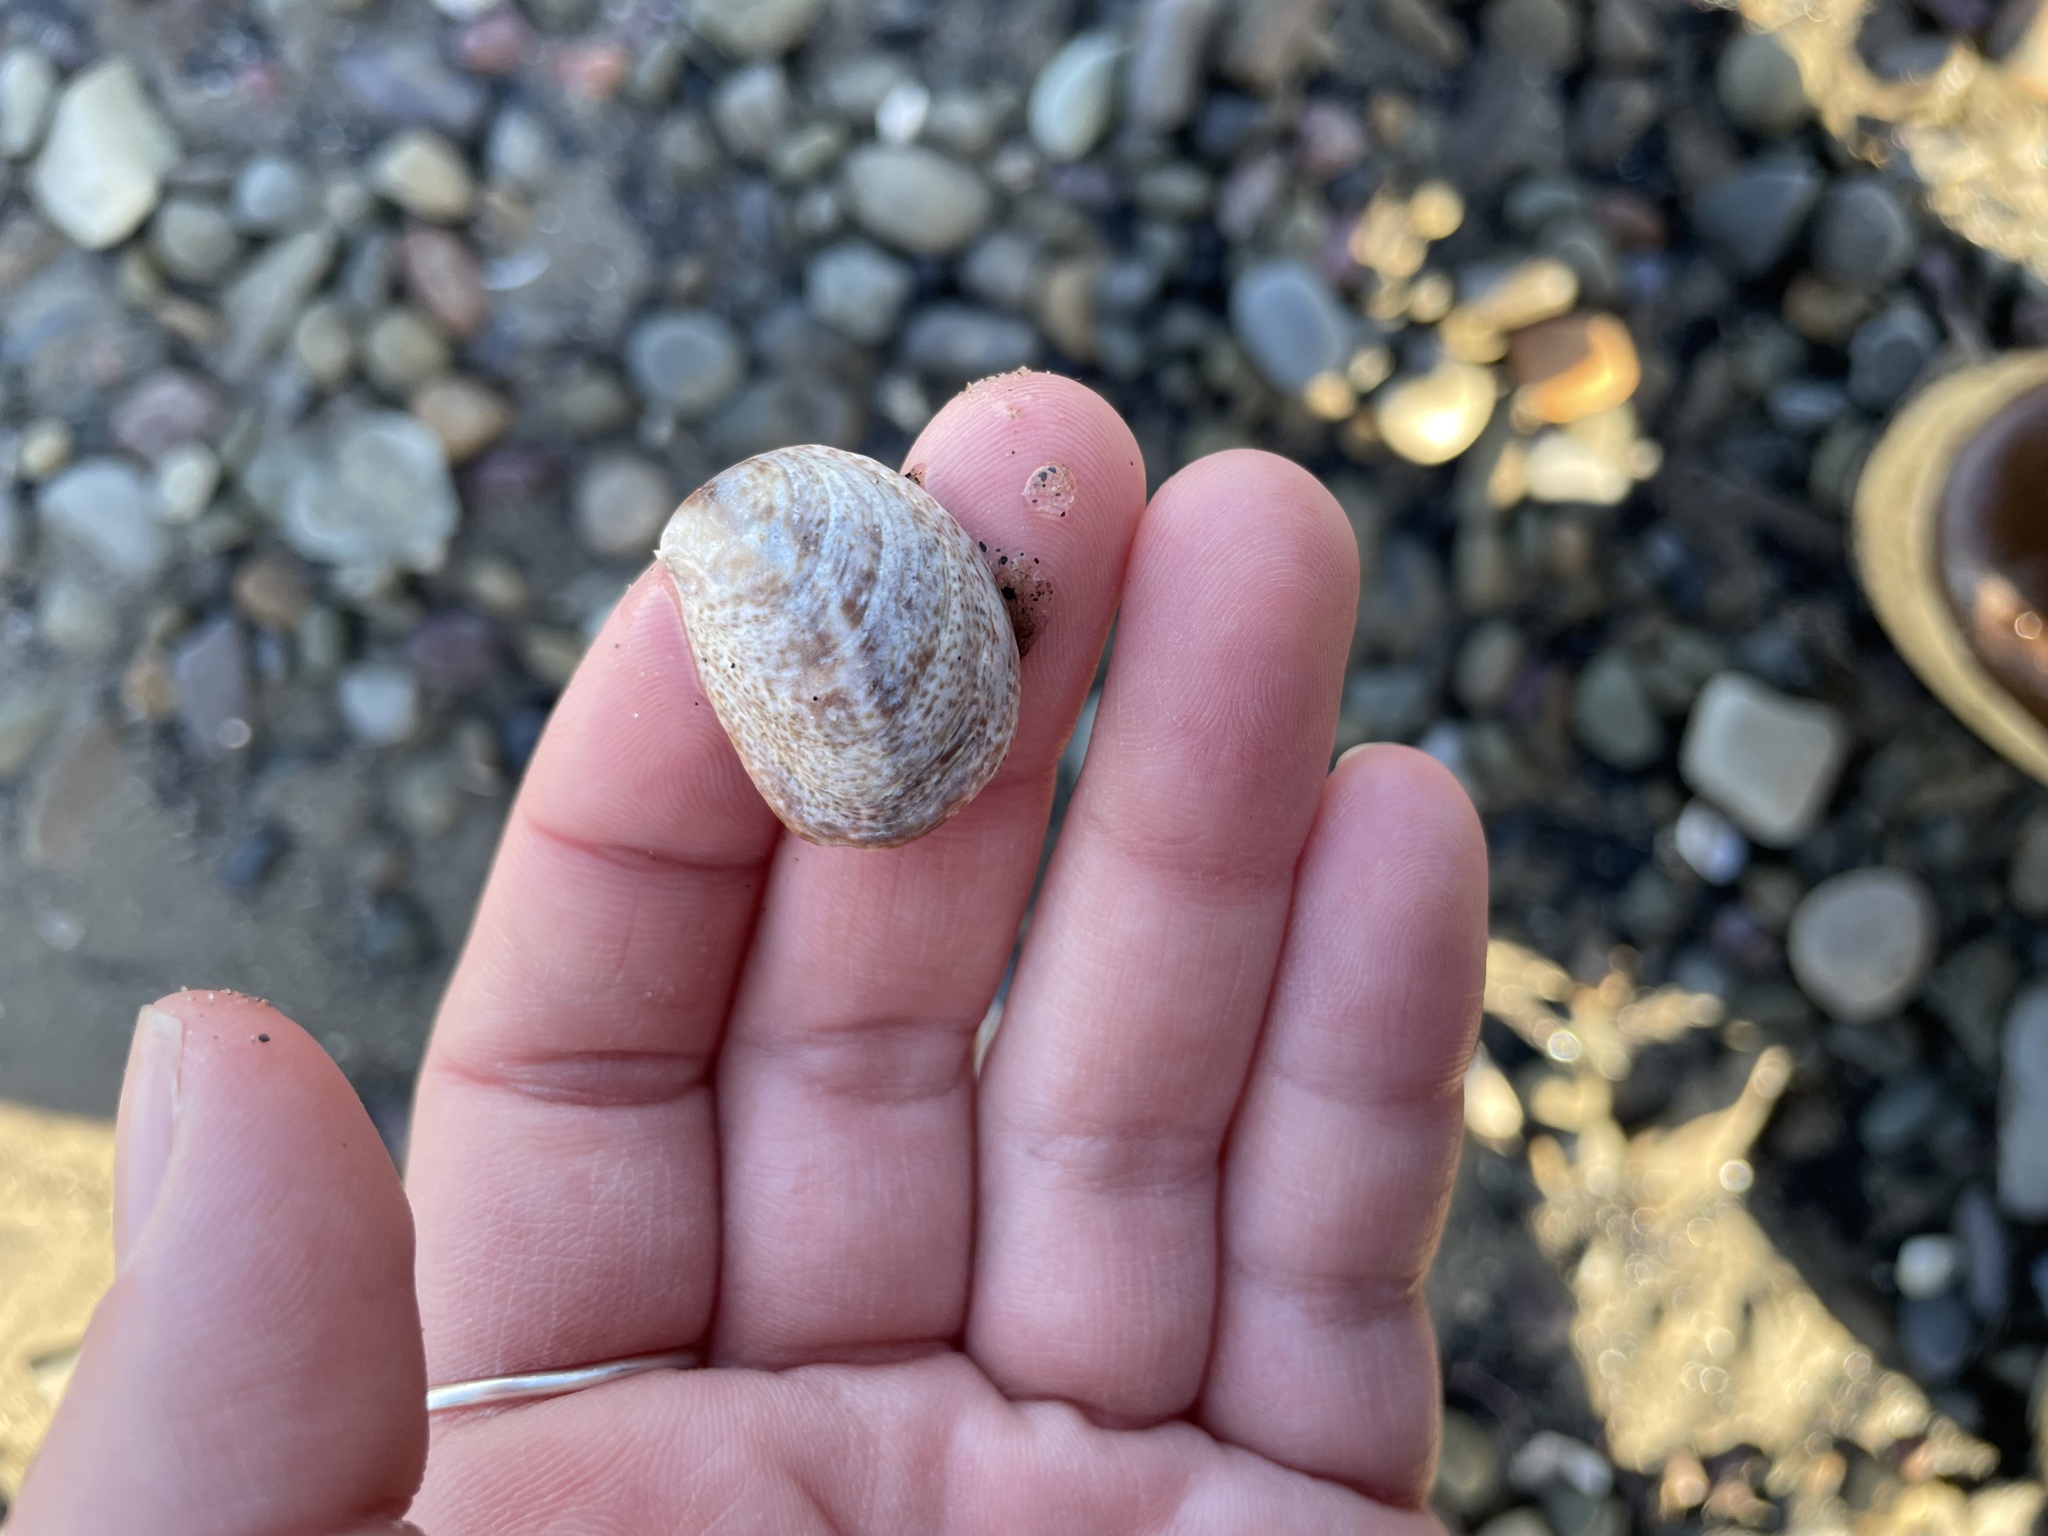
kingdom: Animalia
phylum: Mollusca
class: Gastropoda
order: Littorinimorpha
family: Calyptraeidae
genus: Crepidula
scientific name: Crepidula fornicata
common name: Slipper limpet
